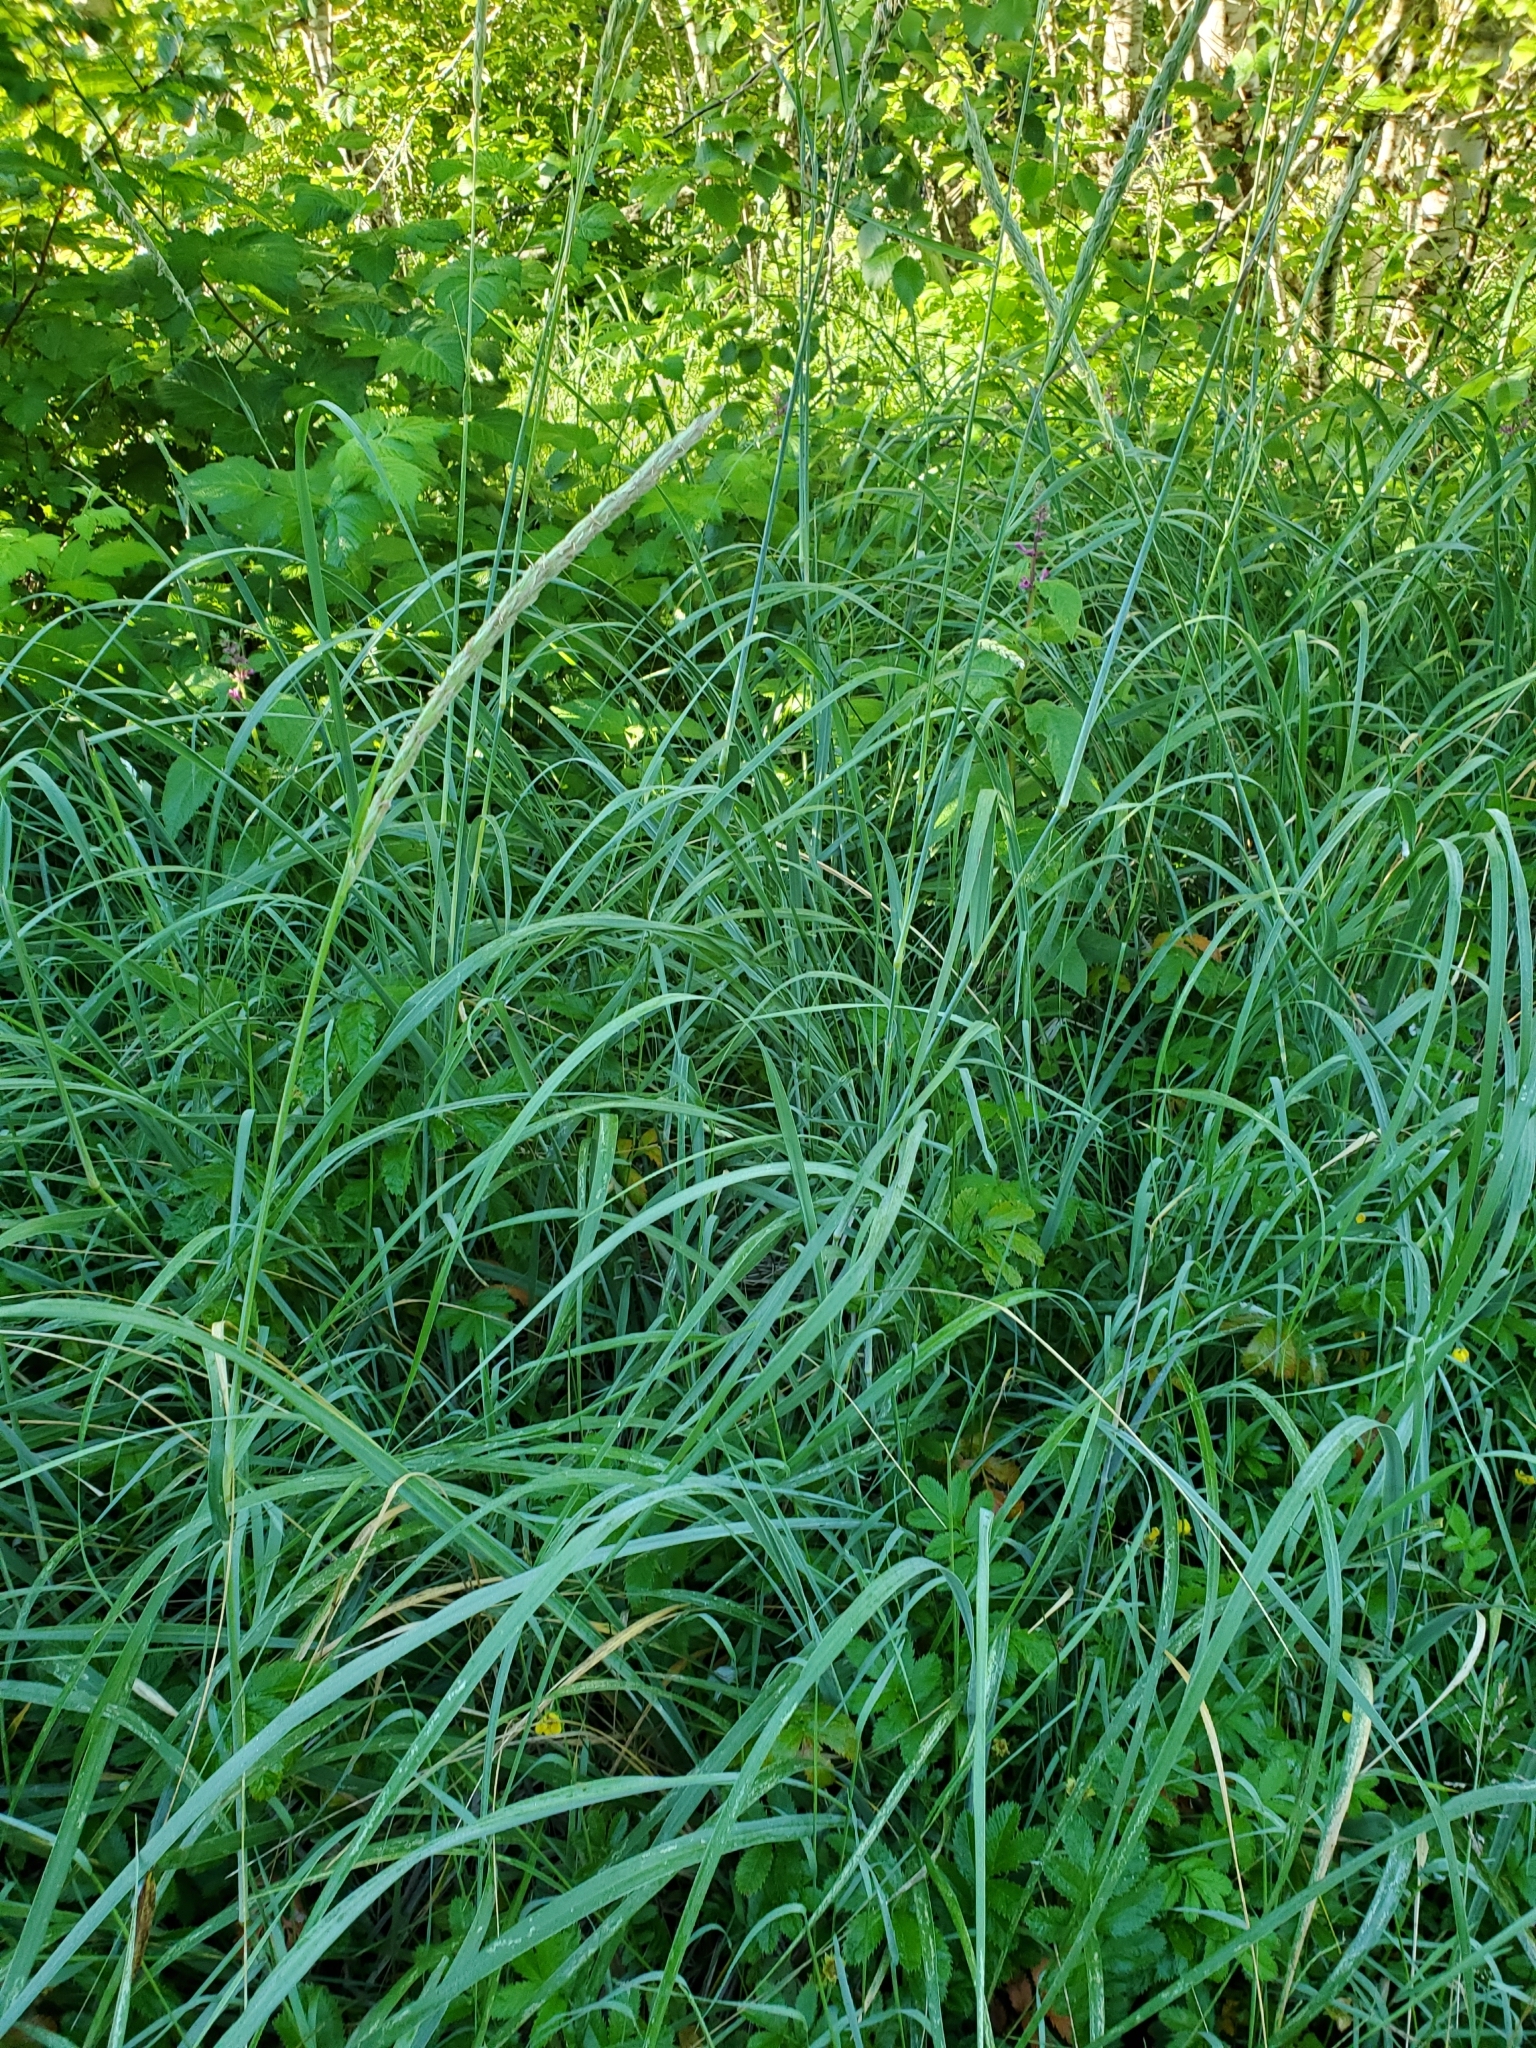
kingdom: Plantae
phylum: Tracheophyta
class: Liliopsida
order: Poales
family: Poaceae
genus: Leymus
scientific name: Leymus mollis
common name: American dune grass
